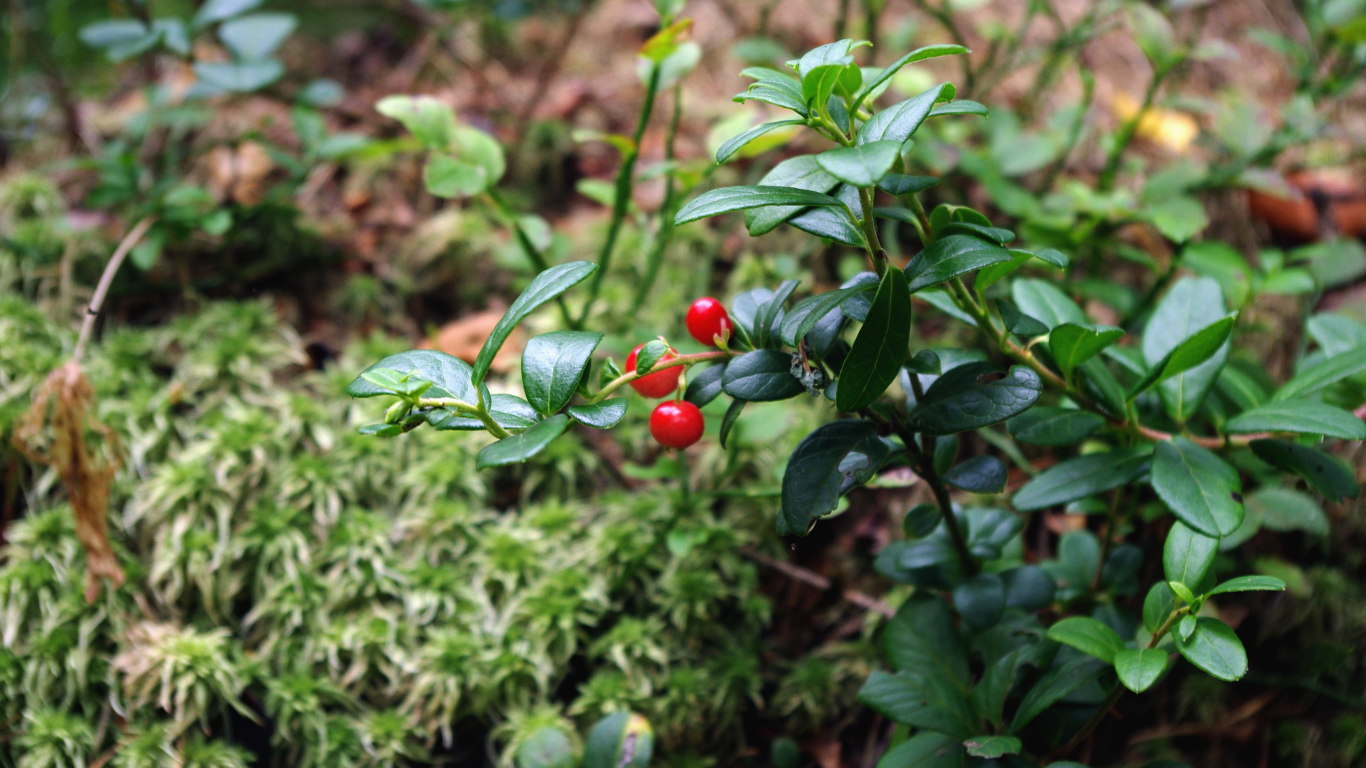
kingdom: Plantae
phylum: Tracheophyta
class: Magnoliopsida
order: Ericales
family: Ericaceae
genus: Vaccinium
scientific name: Vaccinium vitis-idaea
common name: Cowberry
